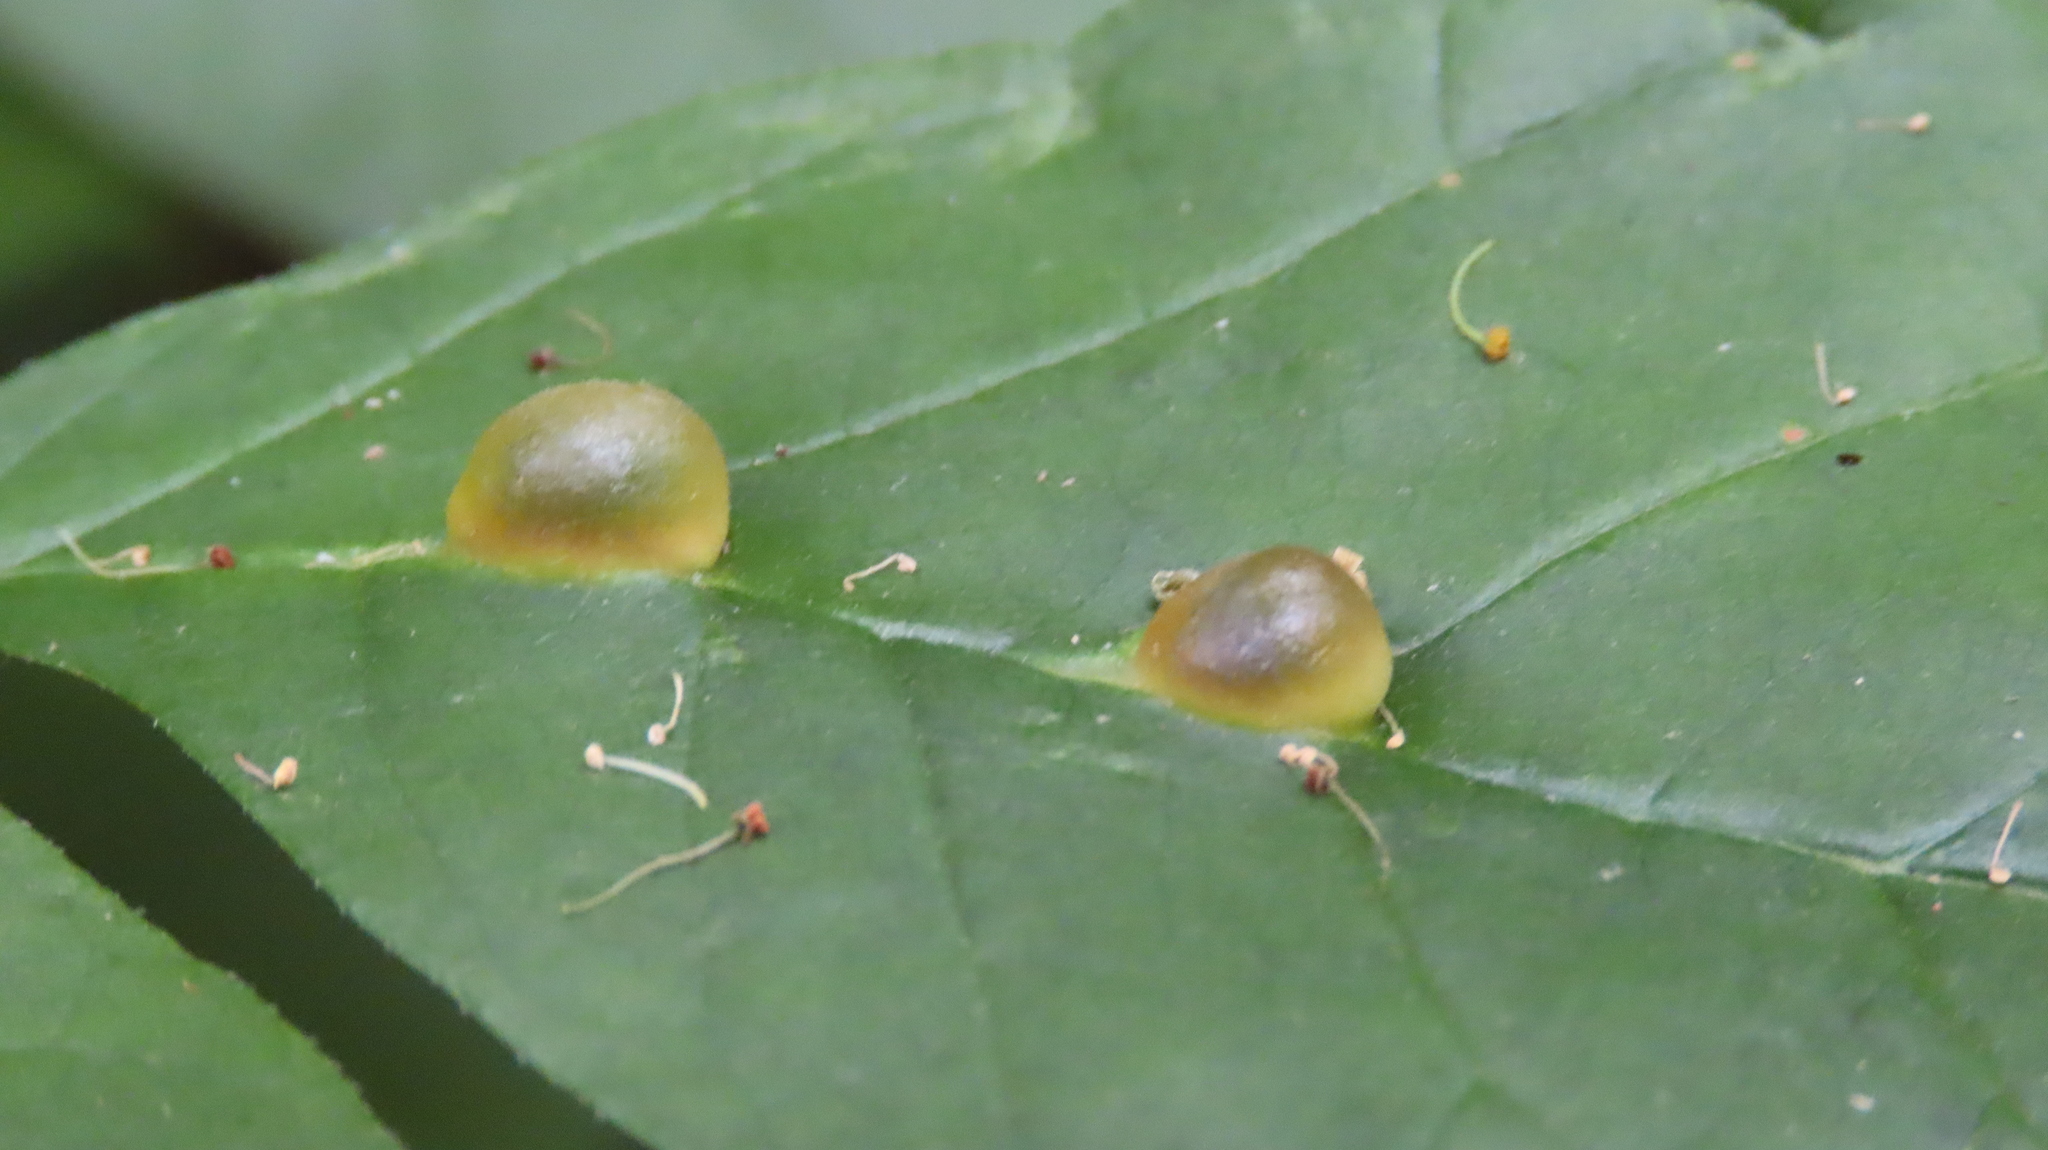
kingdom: Animalia
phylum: Arthropoda
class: Insecta
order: Diptera
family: Cecidomyiidae
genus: Dasineura
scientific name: Dasineura pellex
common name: Ash bullet gall midge
